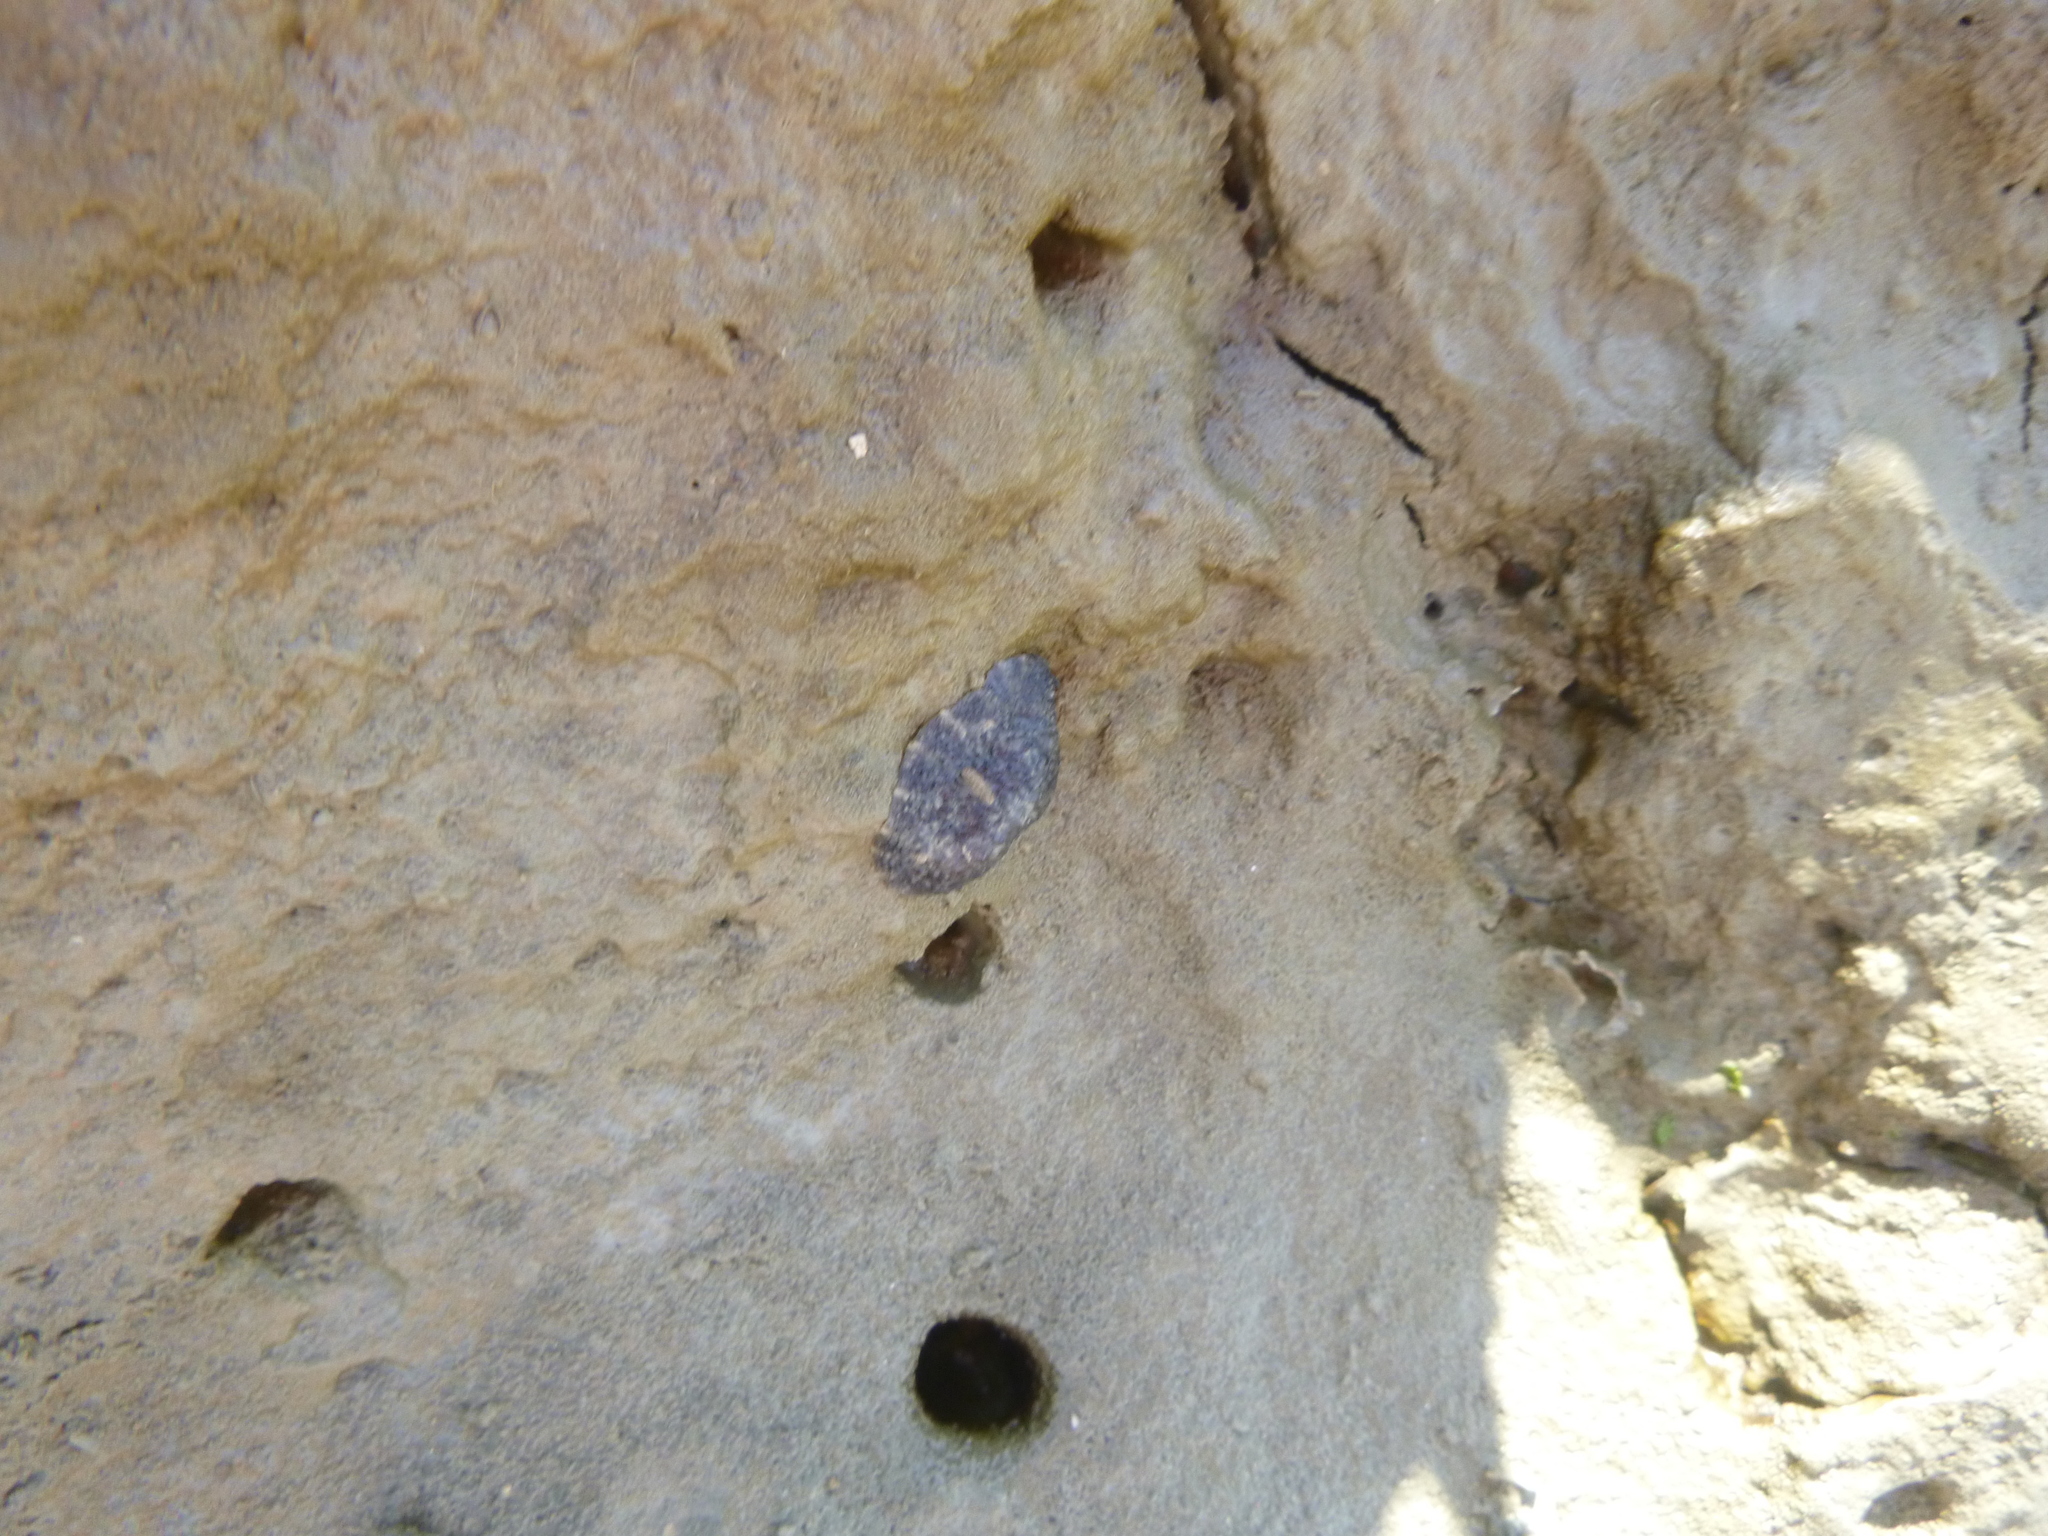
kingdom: Animalia
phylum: Mollusca
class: Gastropoda
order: Systellommatophora
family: Onchidiidae
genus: Onchidella
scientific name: Onchidella nigricans
